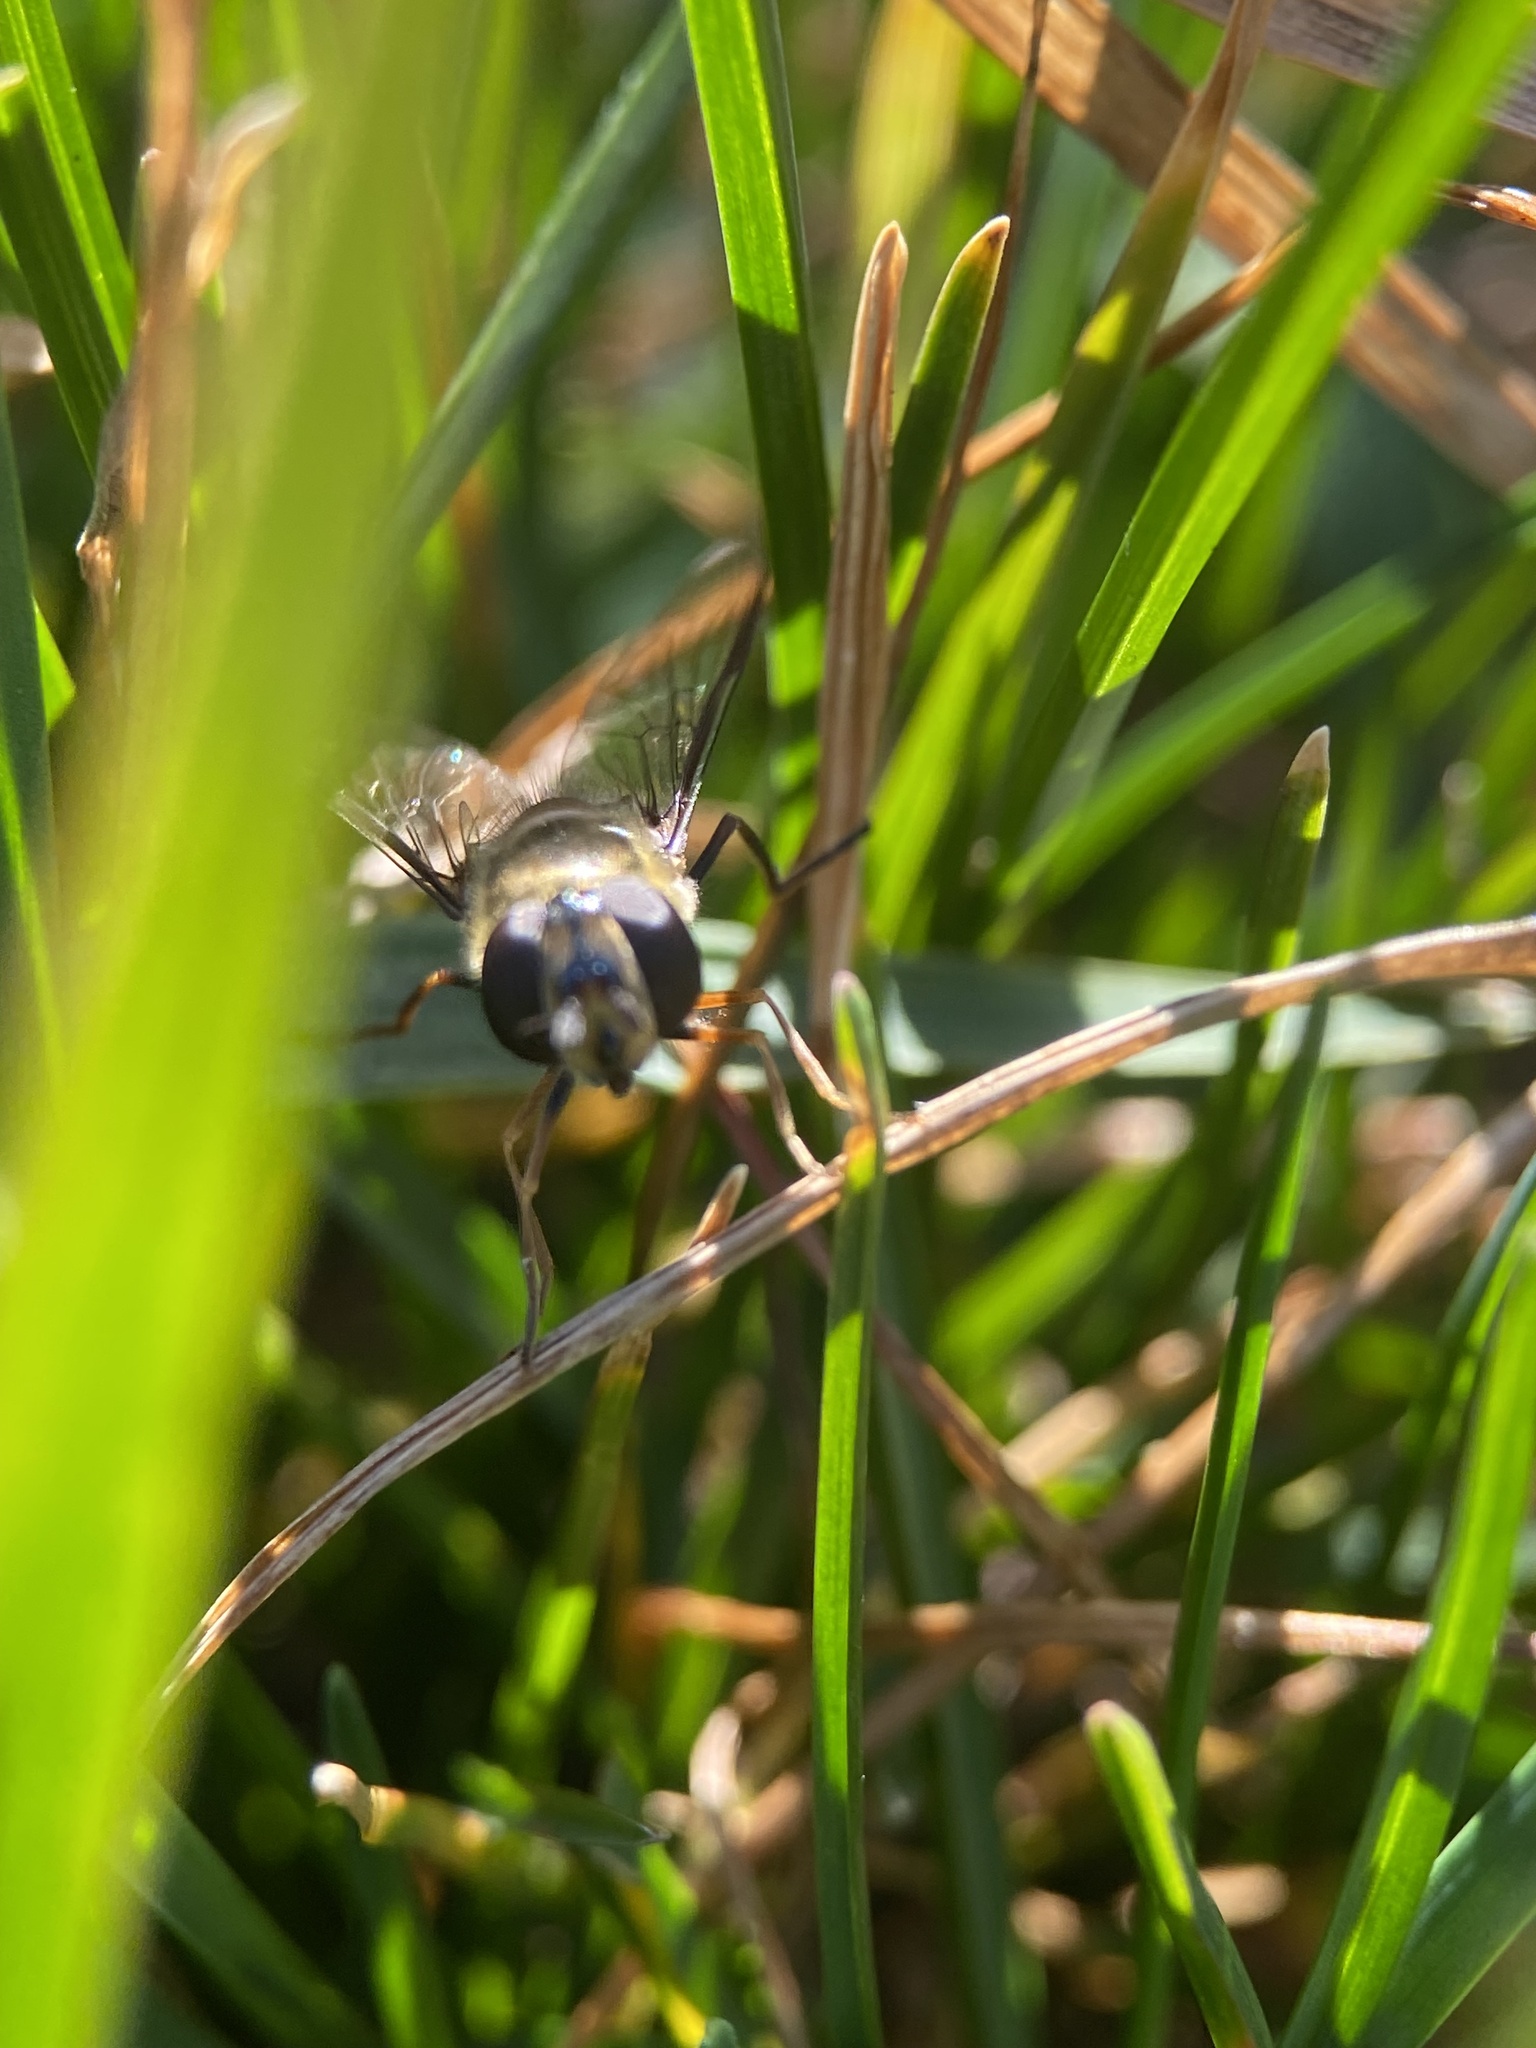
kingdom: Animalia
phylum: Arthropoda
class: Insecta
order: Diptera
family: Syrphidae
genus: Lapposyrphus
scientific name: Lapposyrphus lapponicus
